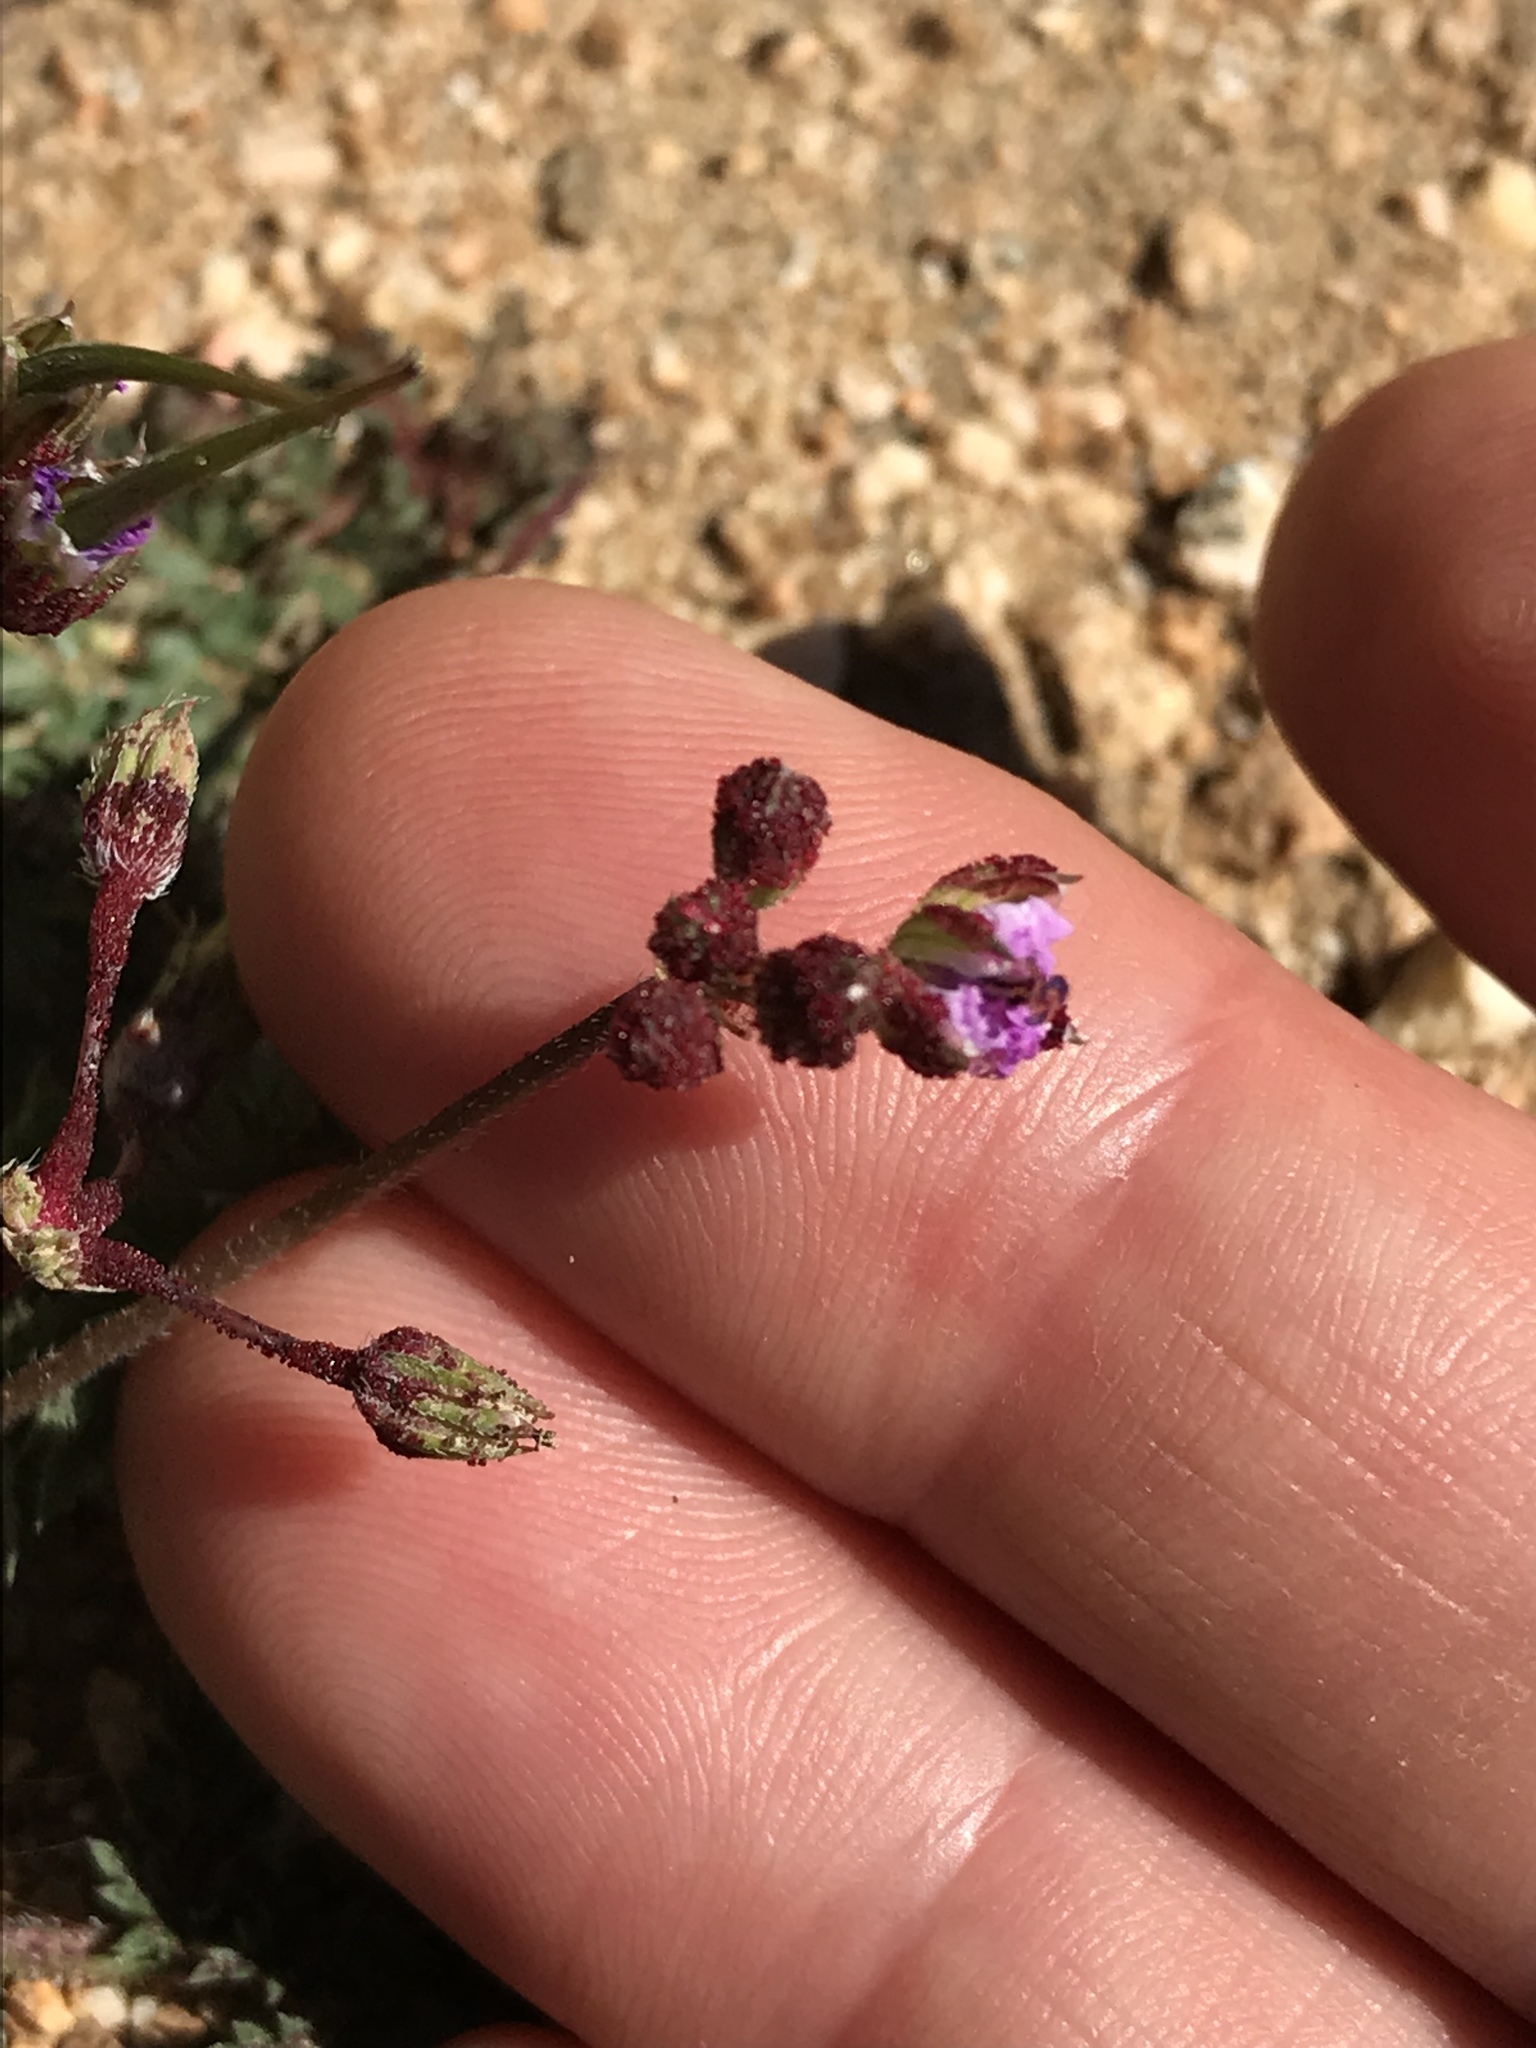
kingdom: Fungi
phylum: Chytridiomycota
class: Chytridiomycetes
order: Chytridiales
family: Synchytriaceae
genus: Synchytrium
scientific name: Synchytrium papillatum
